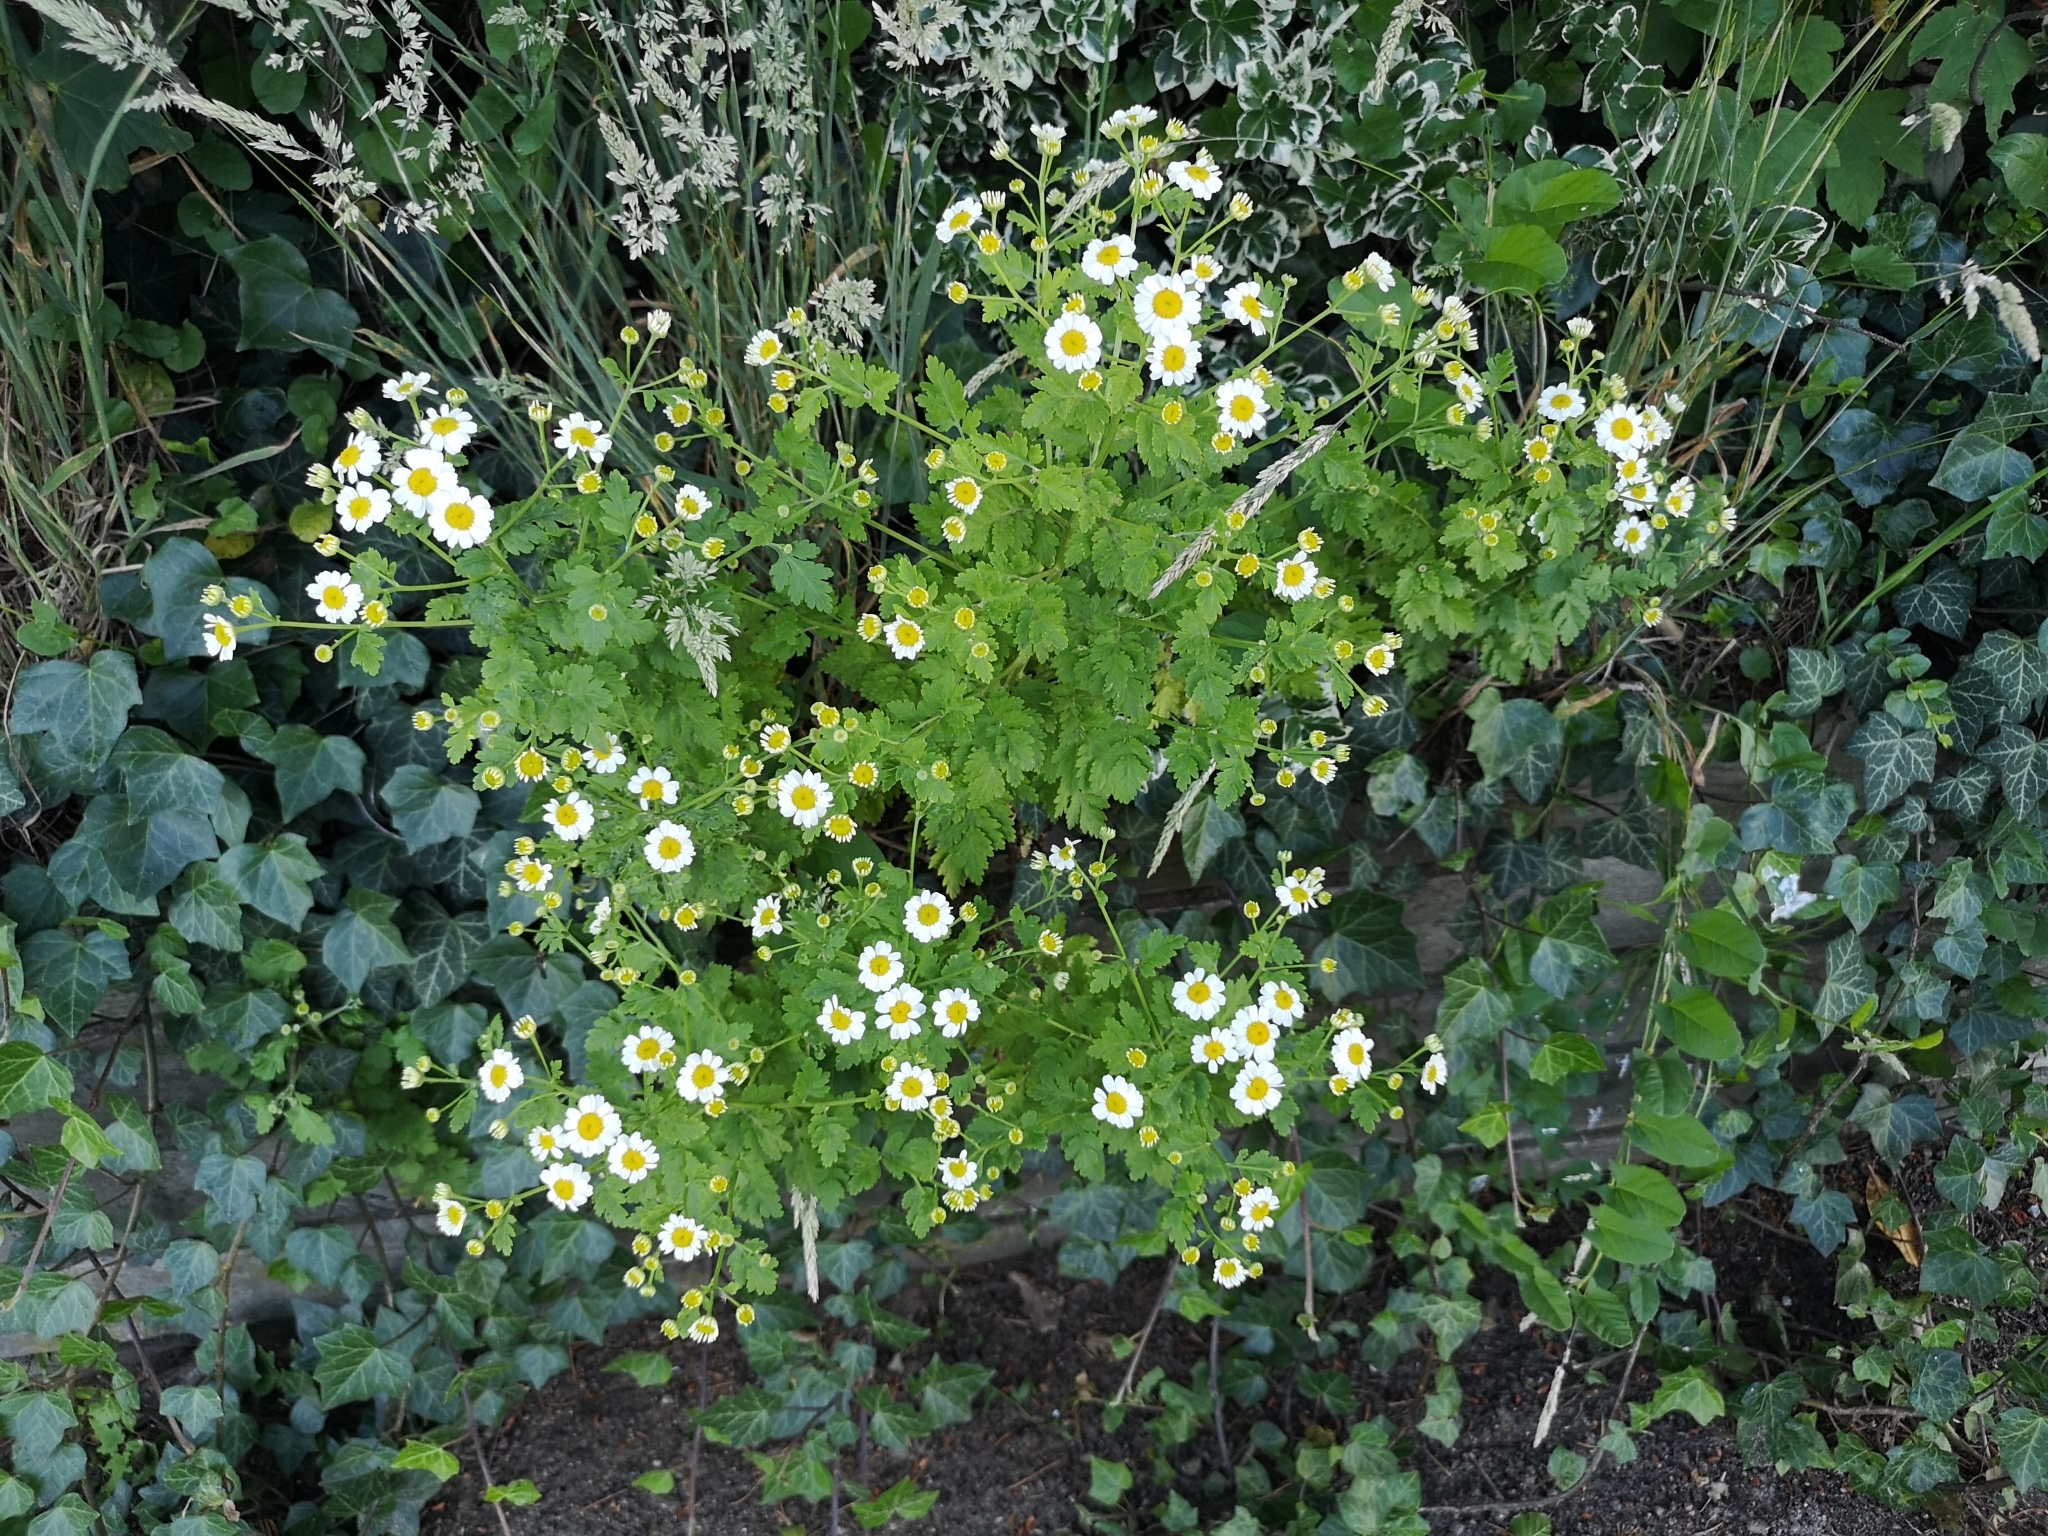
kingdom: Plantae
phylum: Tracheophyta
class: Magnoliopsida
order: Asterales
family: Asteraceae
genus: Tanacetum
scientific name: Tanacetum parthenium
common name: Feverfew
